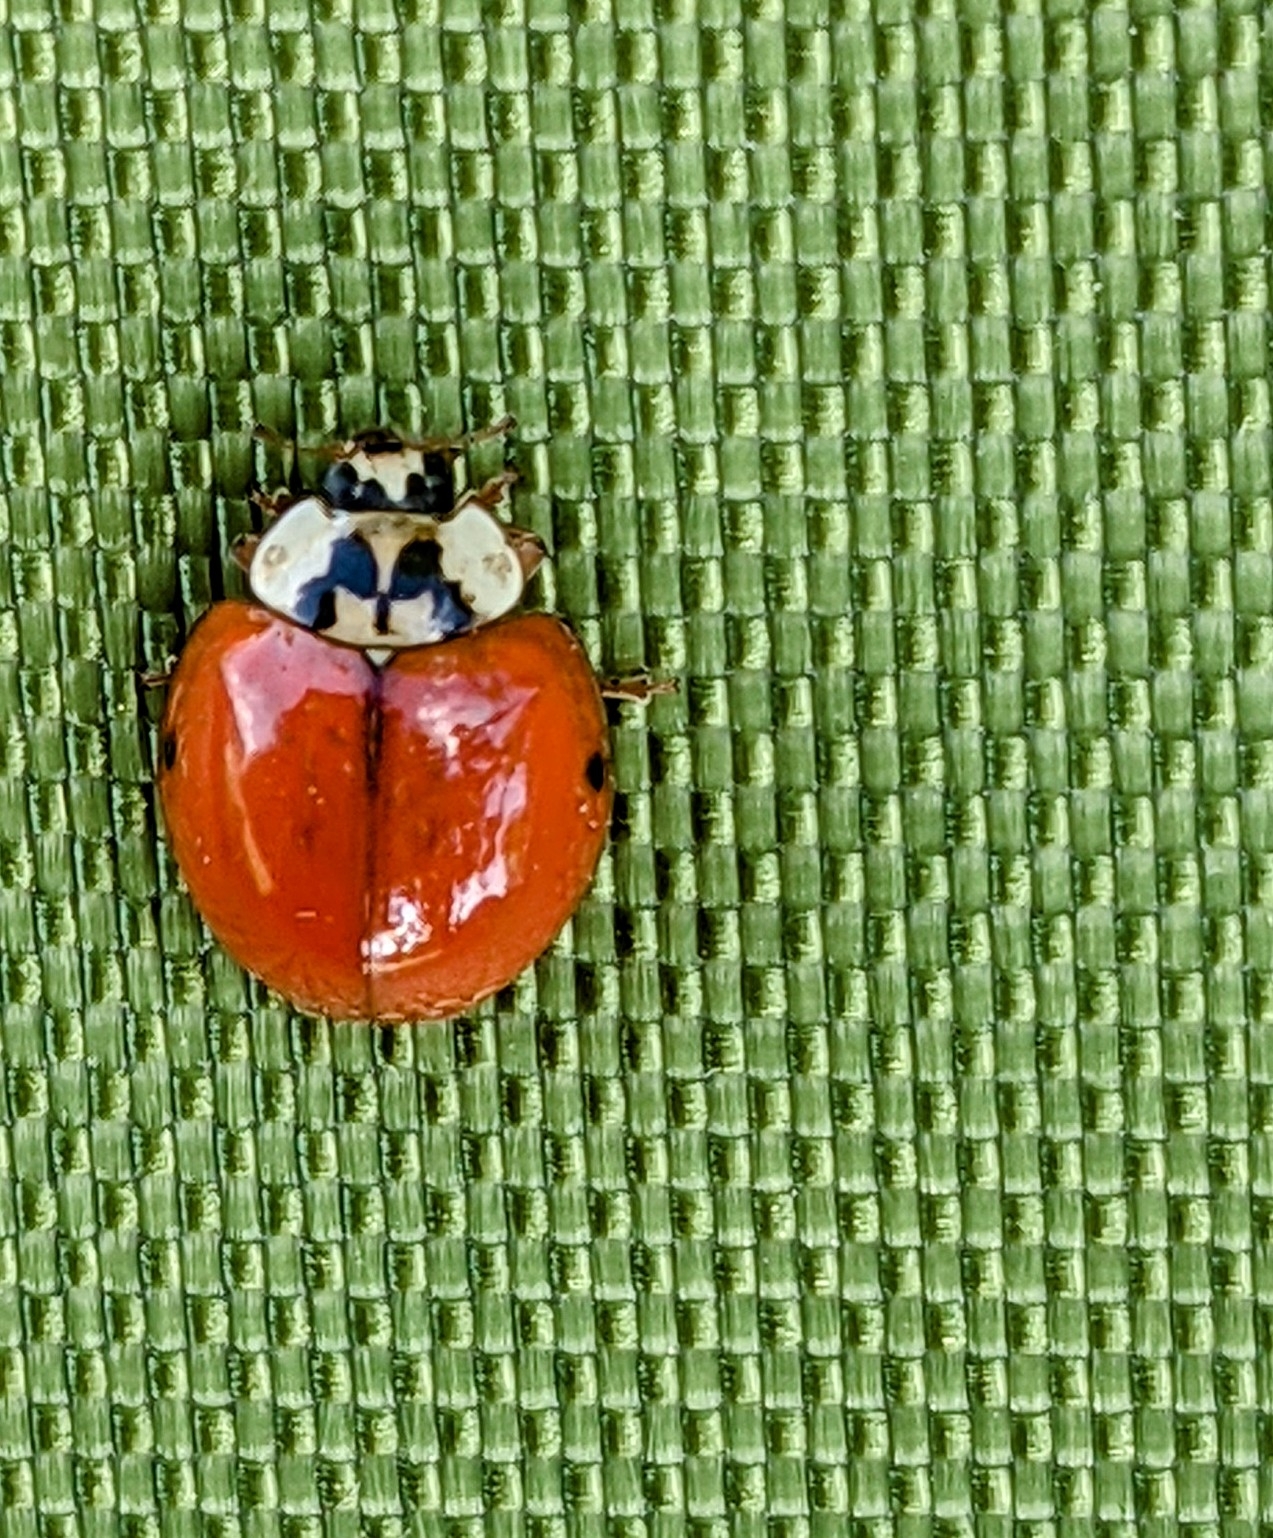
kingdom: Animalia
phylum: Arthropoda
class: Insecta
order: Coleoptera
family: Coccinellidae
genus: Harmonia
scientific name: Harmonia axyridis
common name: Harlequin ladybird
